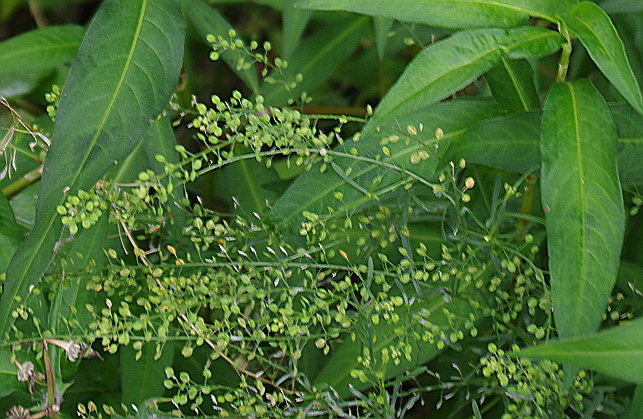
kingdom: Plantae
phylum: Tracheophyta
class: Magnoliopsida
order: Brassicales
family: Brassicaceae
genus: Lepidium
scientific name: Lepidium ruderale
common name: Narrow-leaved pepperwort
